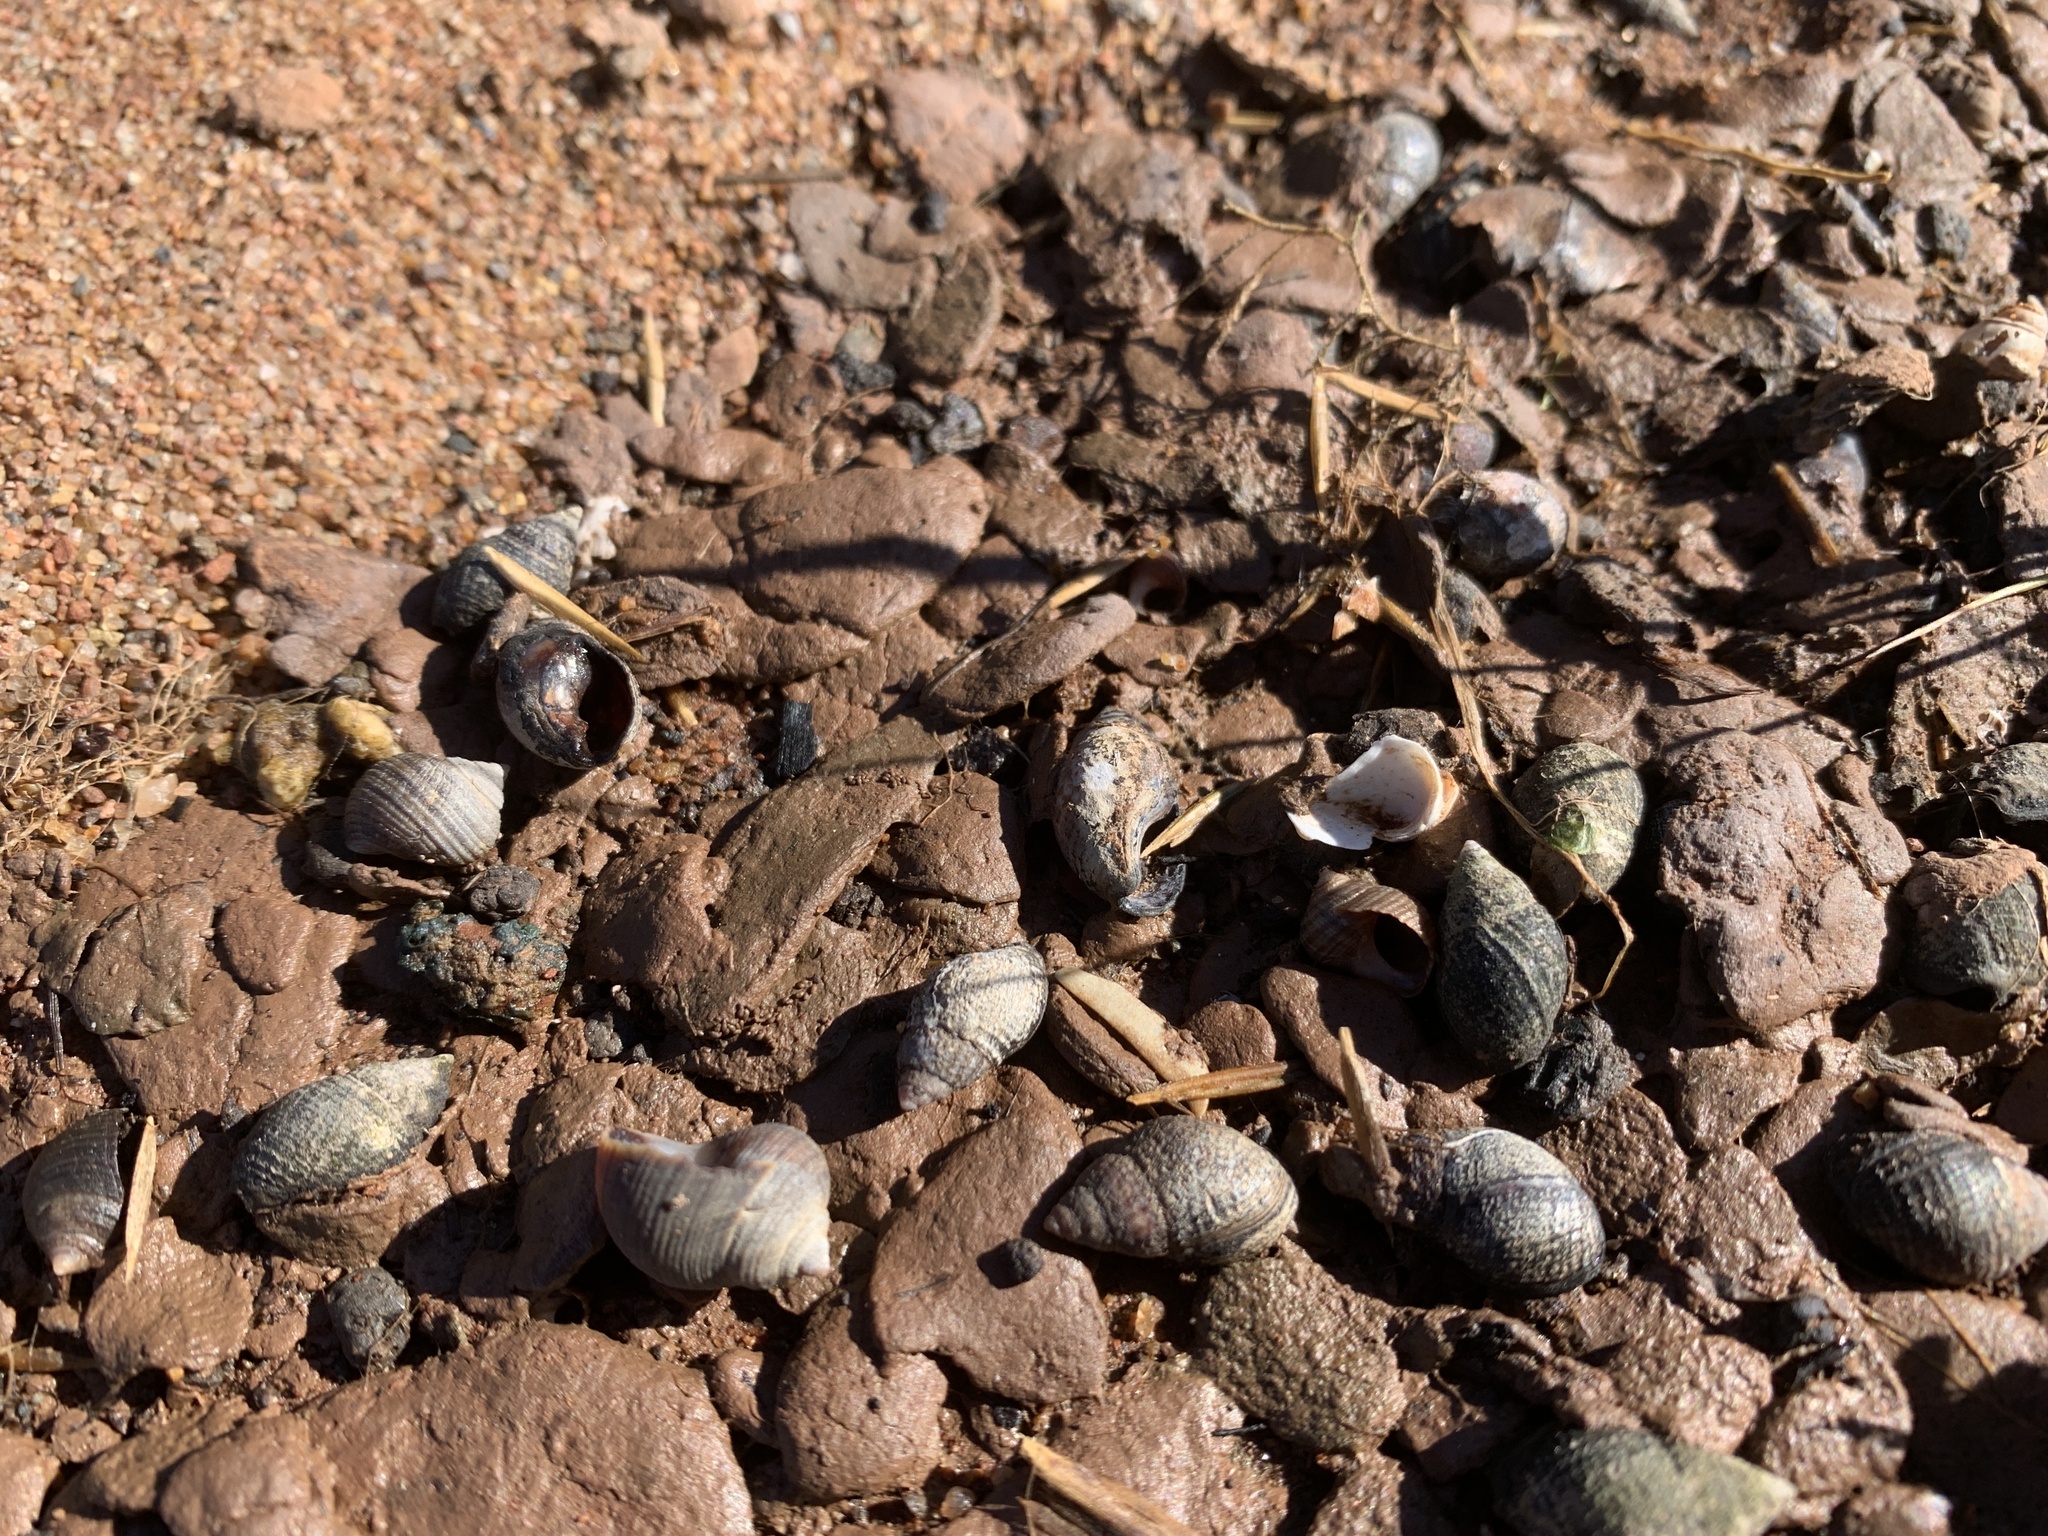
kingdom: Animalia
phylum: Mollusca
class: Gastropoda
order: Neogastropoda
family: Nassariidae
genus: Ilyanassa
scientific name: Ilyanassa obsoleta
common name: Eastern mudsnail
